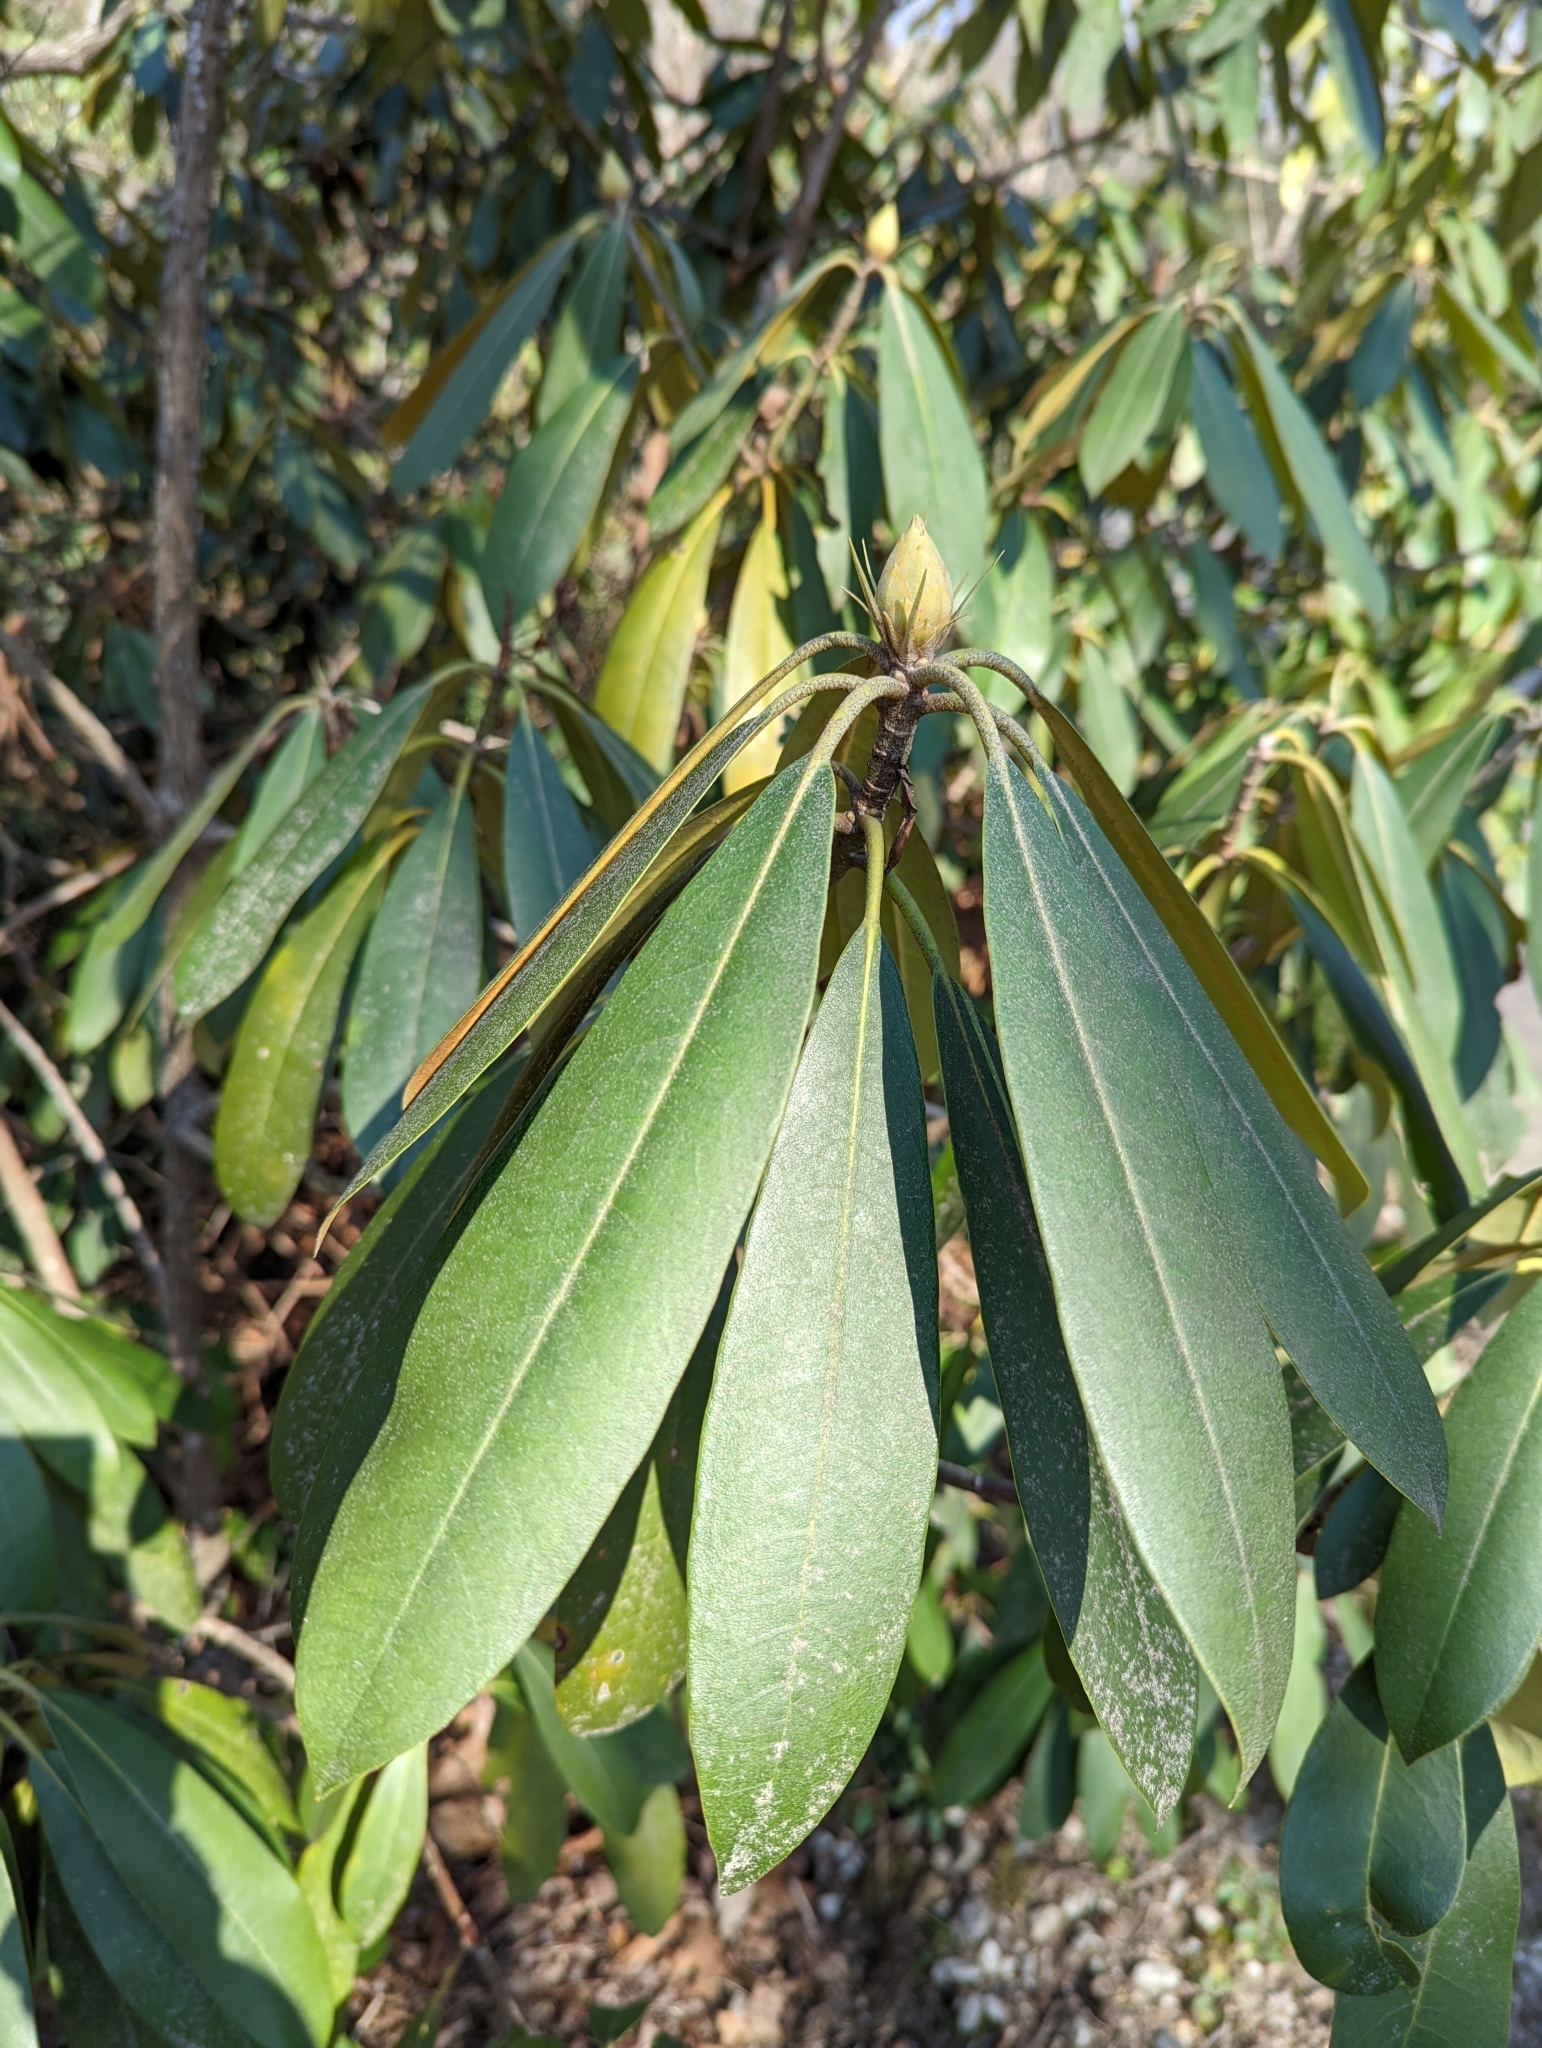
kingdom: Plantae
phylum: Tracheophyta
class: Magnoliopsida
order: Ericales
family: Ericaceae
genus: Rhododendron
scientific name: Rhododendron maximum
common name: Great rhododendron
